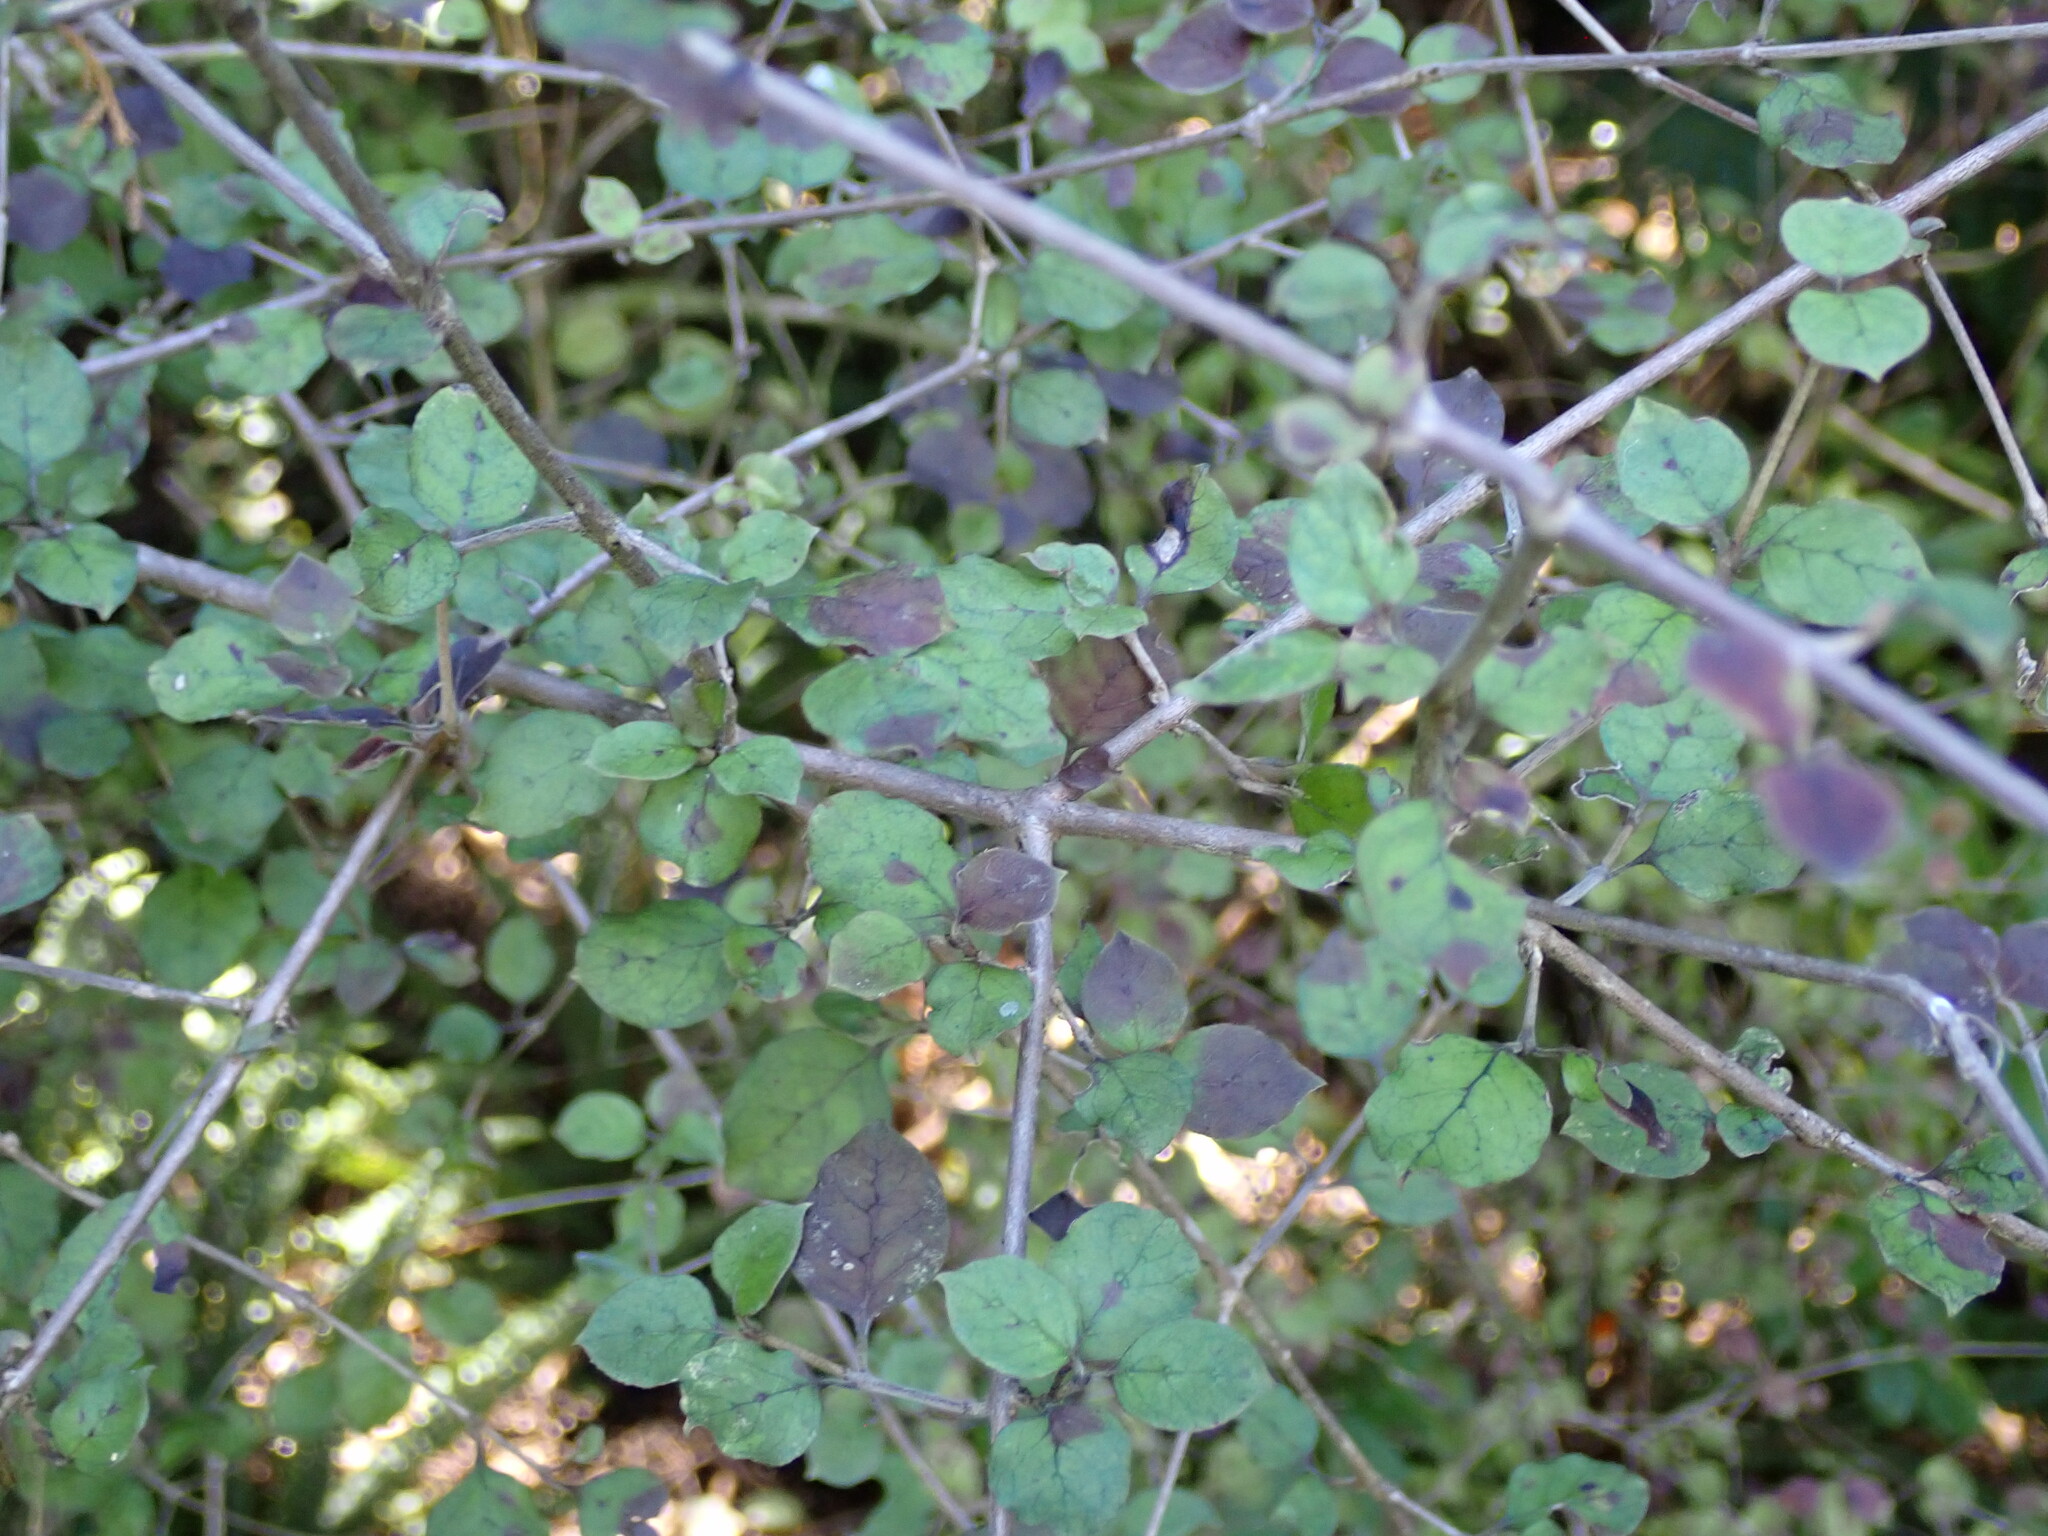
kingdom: Plantae
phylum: Tracheophyta
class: Magnoliopsida
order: Gentianales
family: Rubiaceae
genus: Coprosma
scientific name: Coprosma rotundifolia
